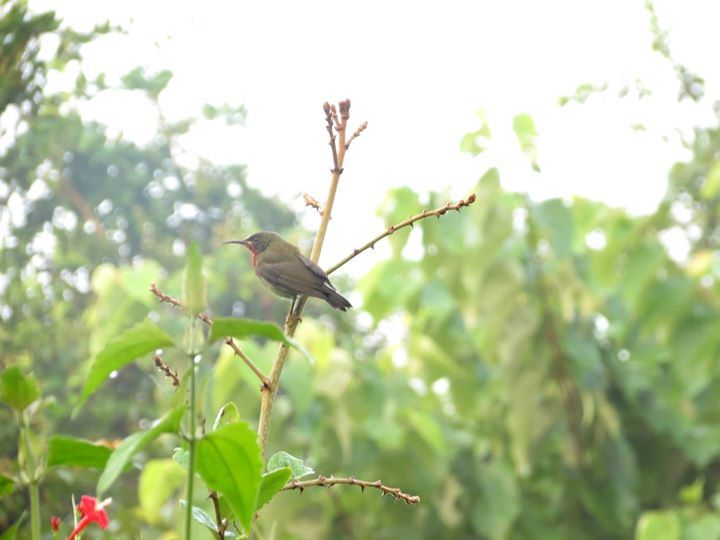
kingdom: Animalia
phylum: Chordata
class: Aves
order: Passeriformes
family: Nectariniidae
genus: Aethopyga
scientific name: Aethopyga vigorsii
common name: Vigors's sunbird
